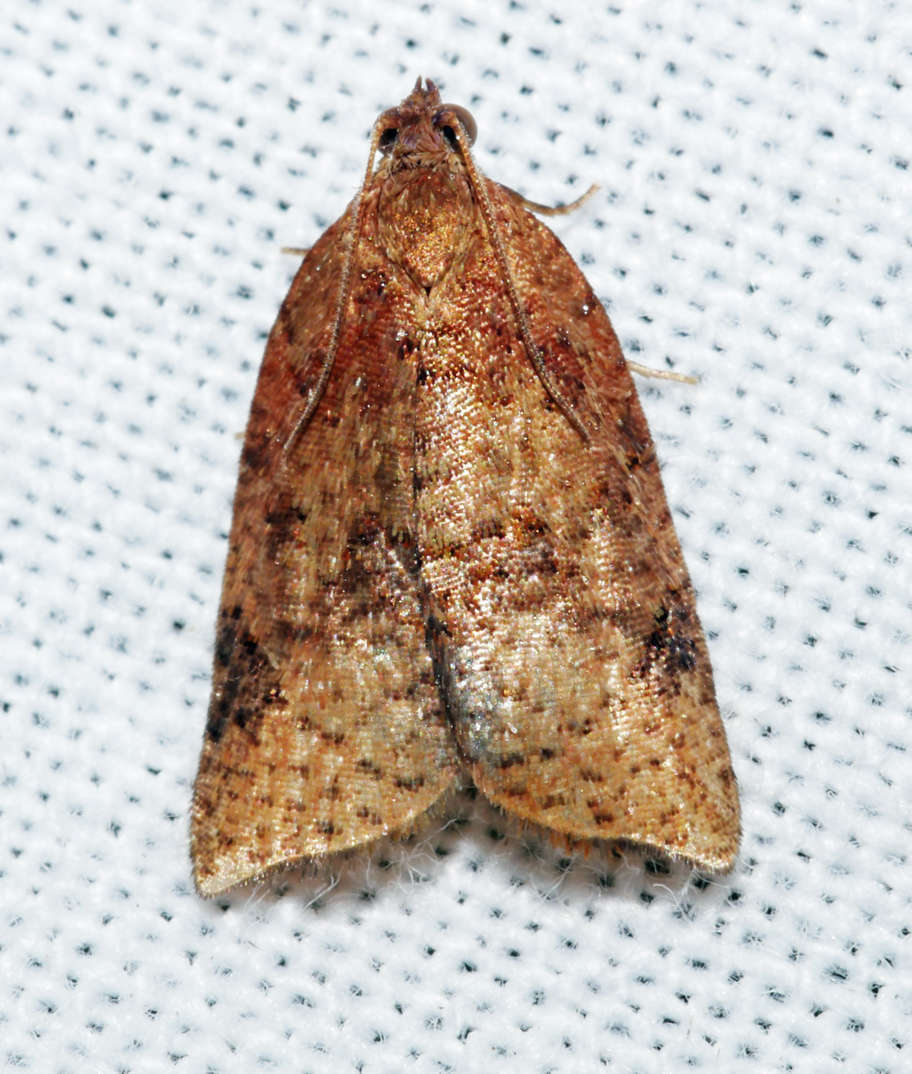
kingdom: Animalia
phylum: Arthropoda
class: Insecta
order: Lepidoptera
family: Tortricidae
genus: Anisogona
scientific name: Anisogona similana
